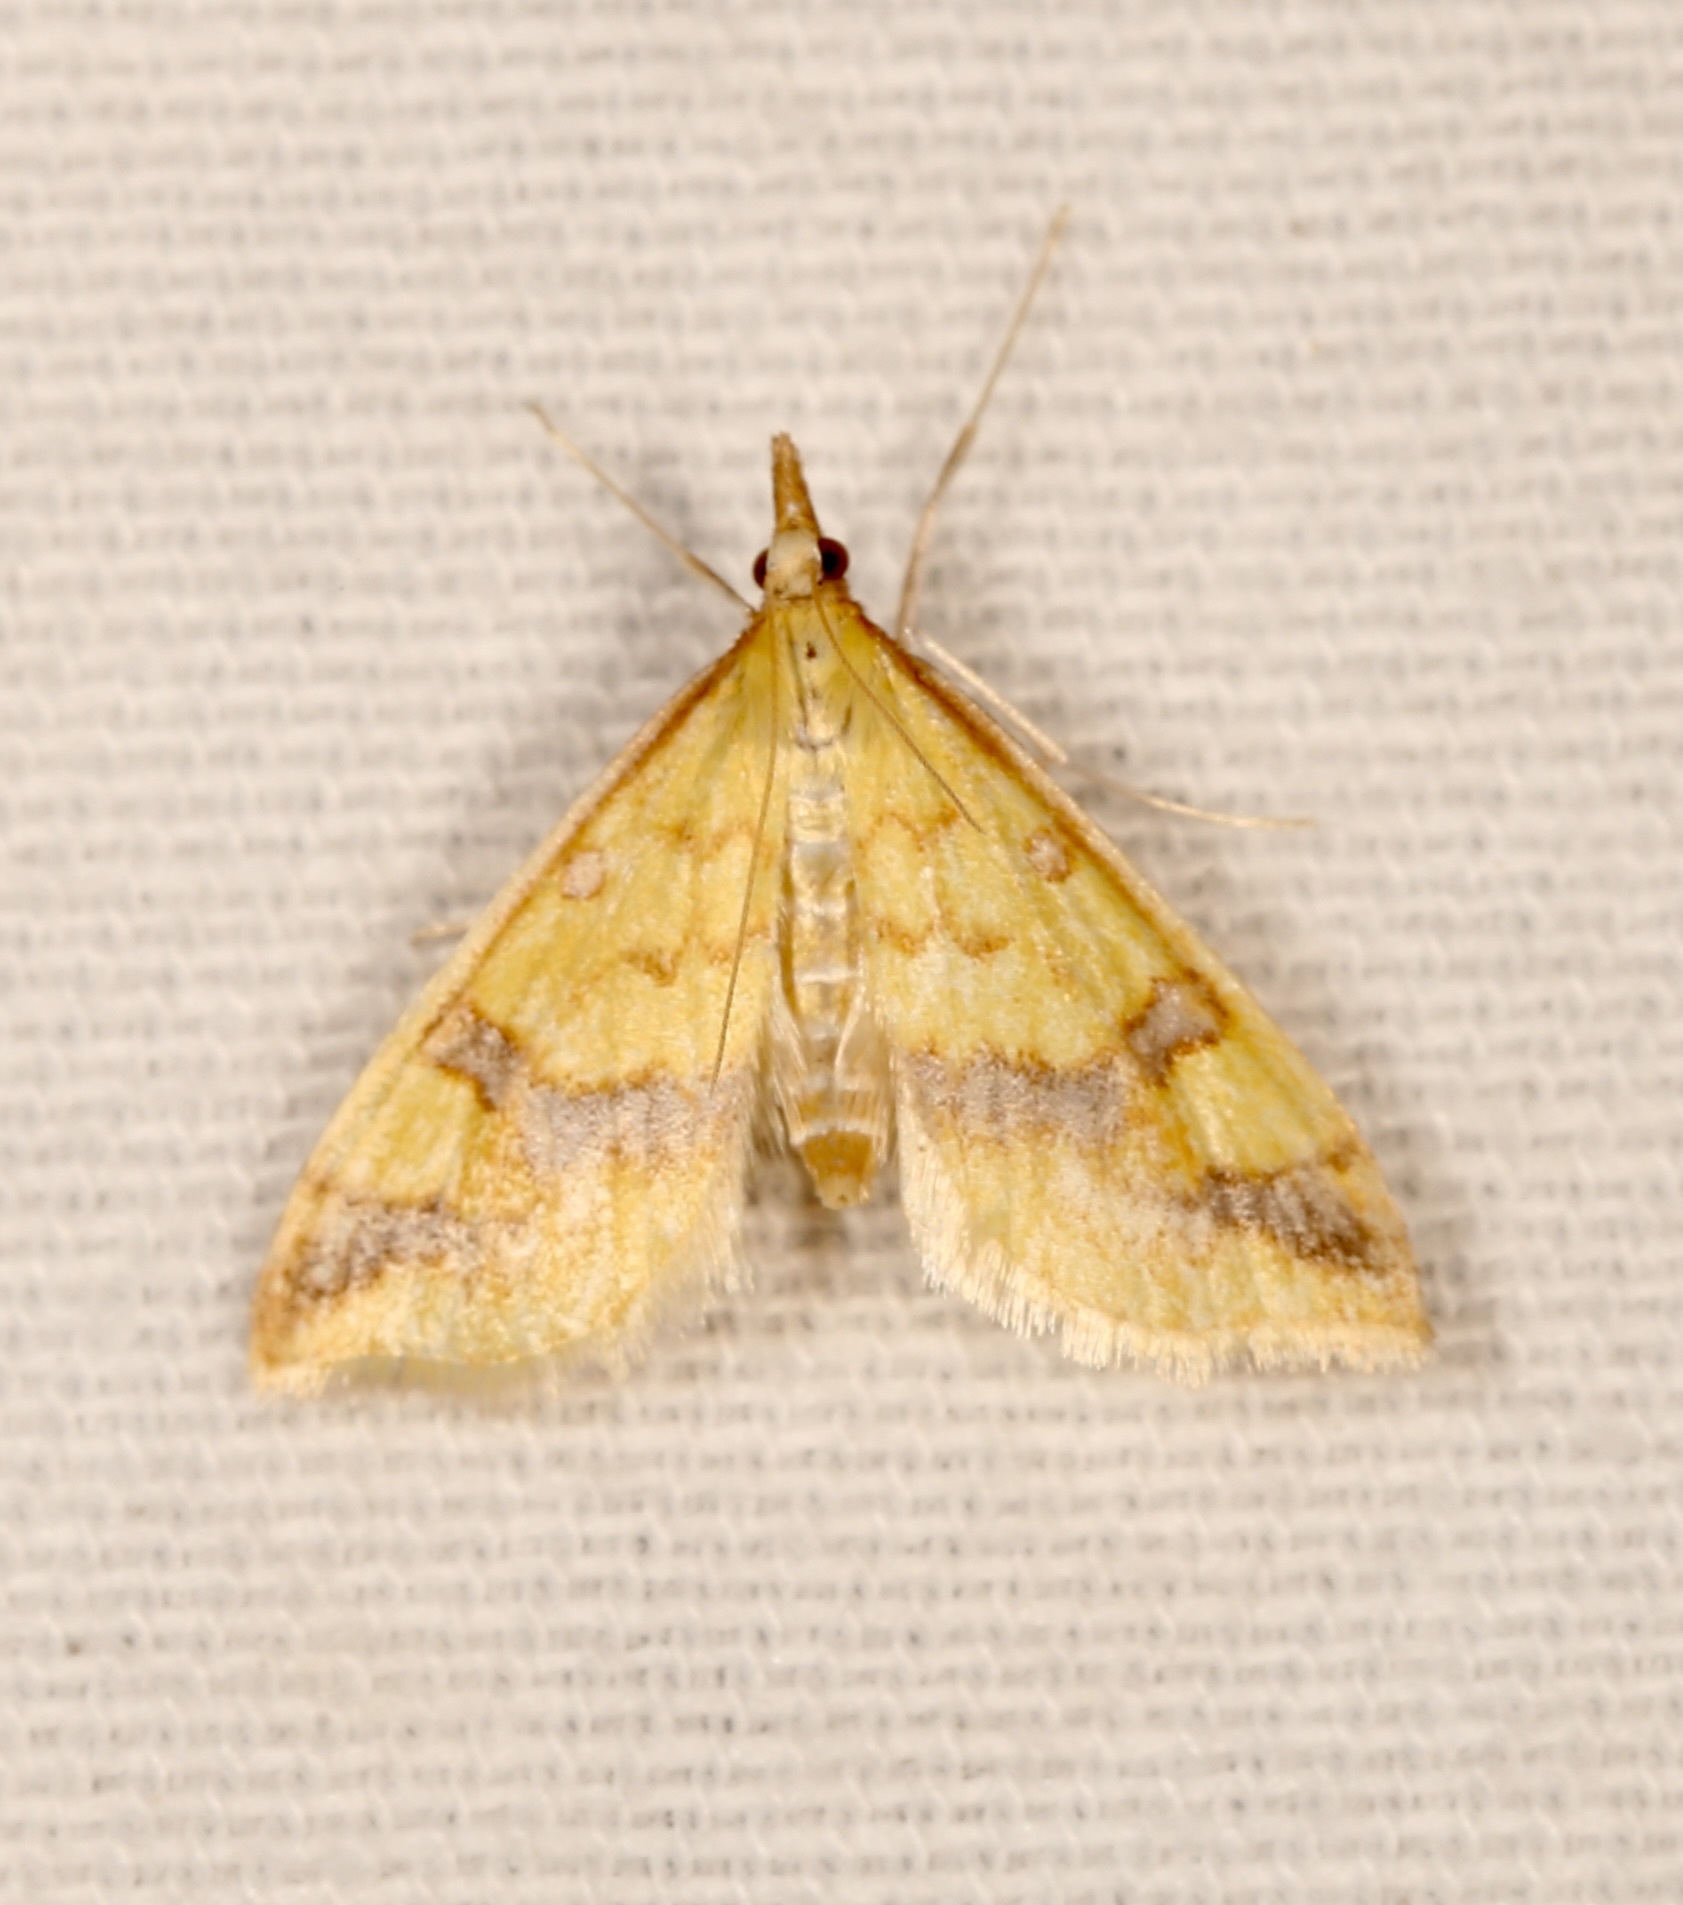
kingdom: Animalia
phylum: Arthropoda
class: Insecta
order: Lepidoptera
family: Crambidae
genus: Choristostigma
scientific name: Choristostigma plumbosignalis
